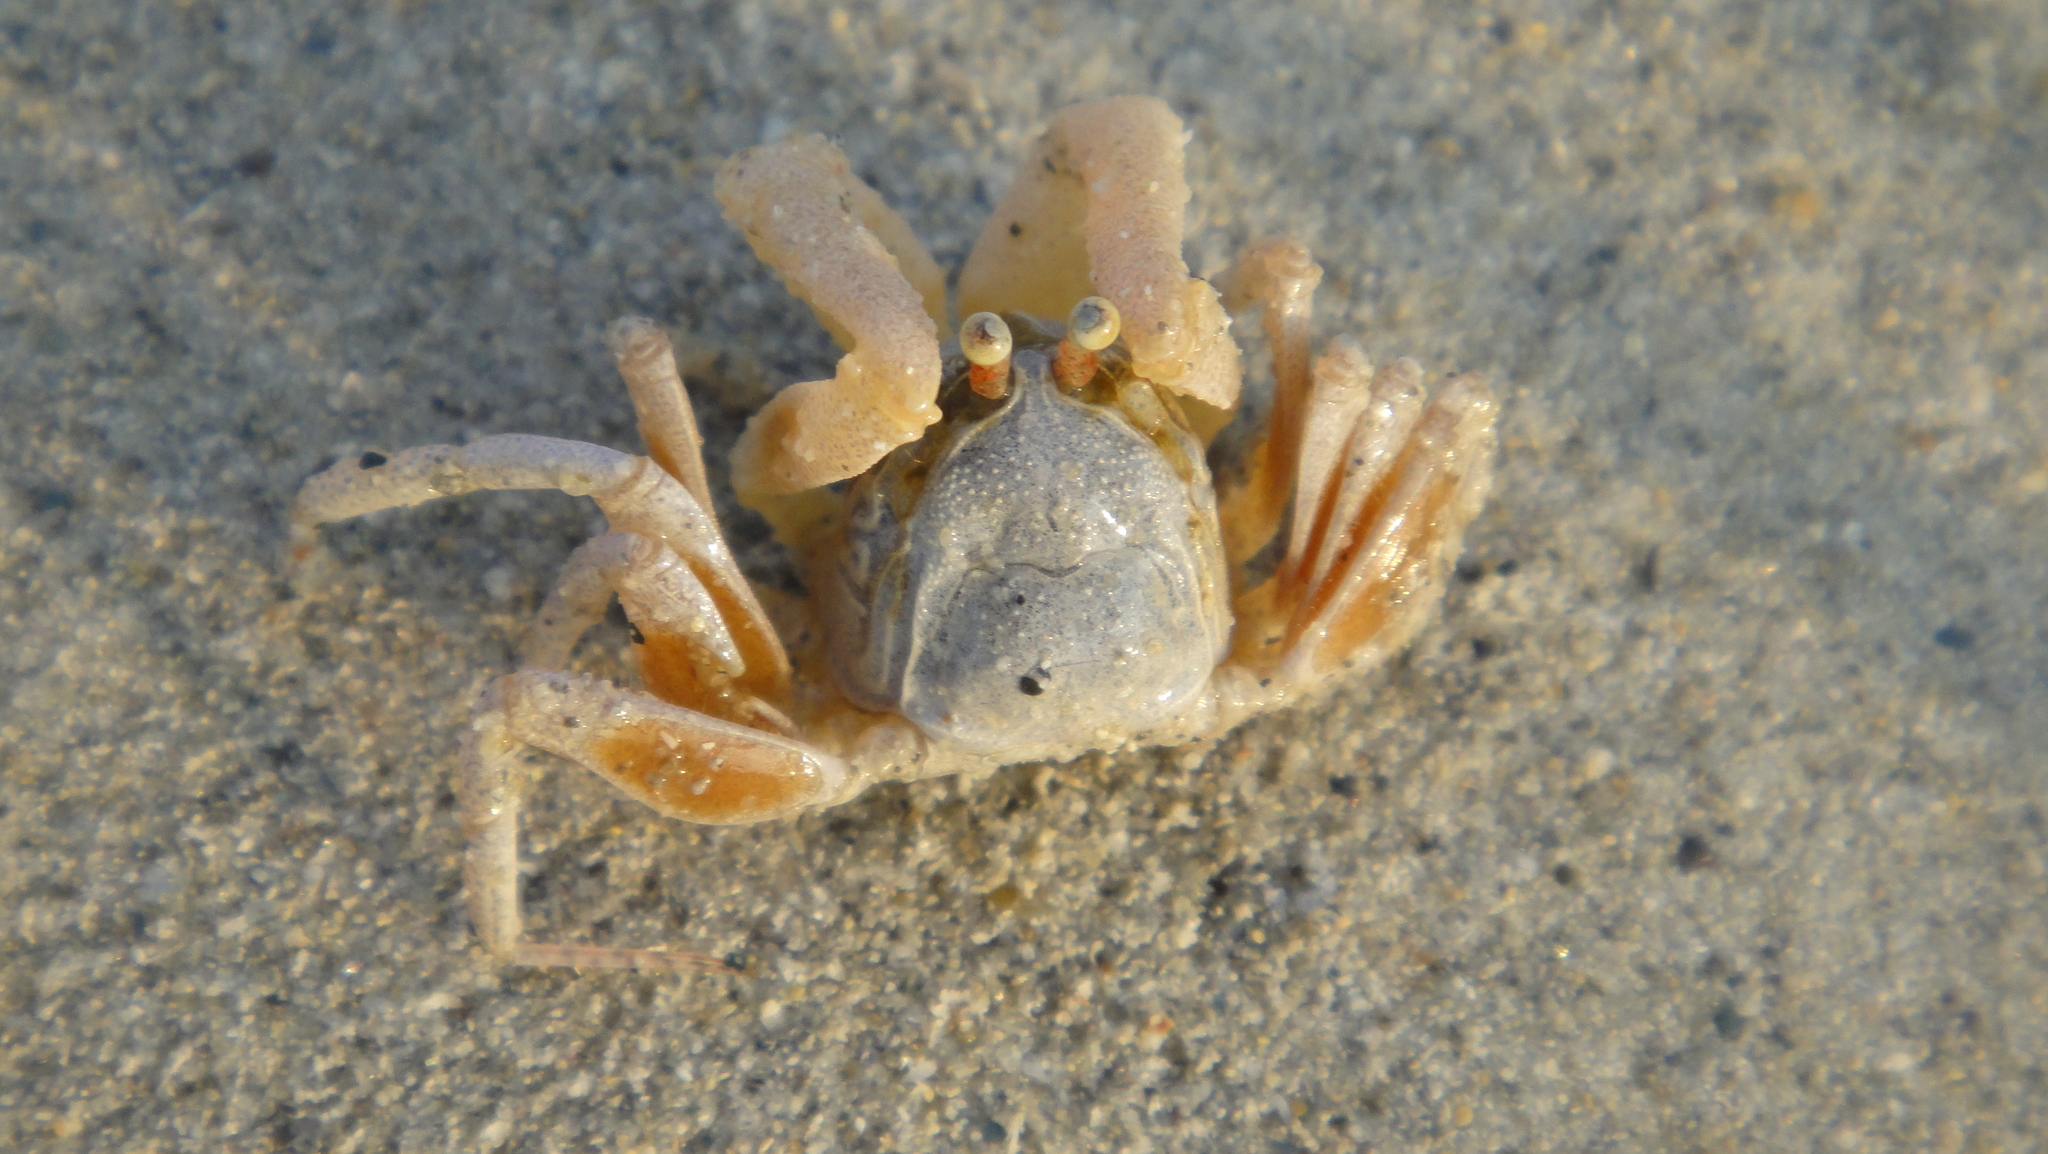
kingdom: Animalia
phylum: Arthropoda
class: Malacostraca
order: Decapoda
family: Dotillidae
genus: Dotilla
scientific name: Dotilla myctiroides
